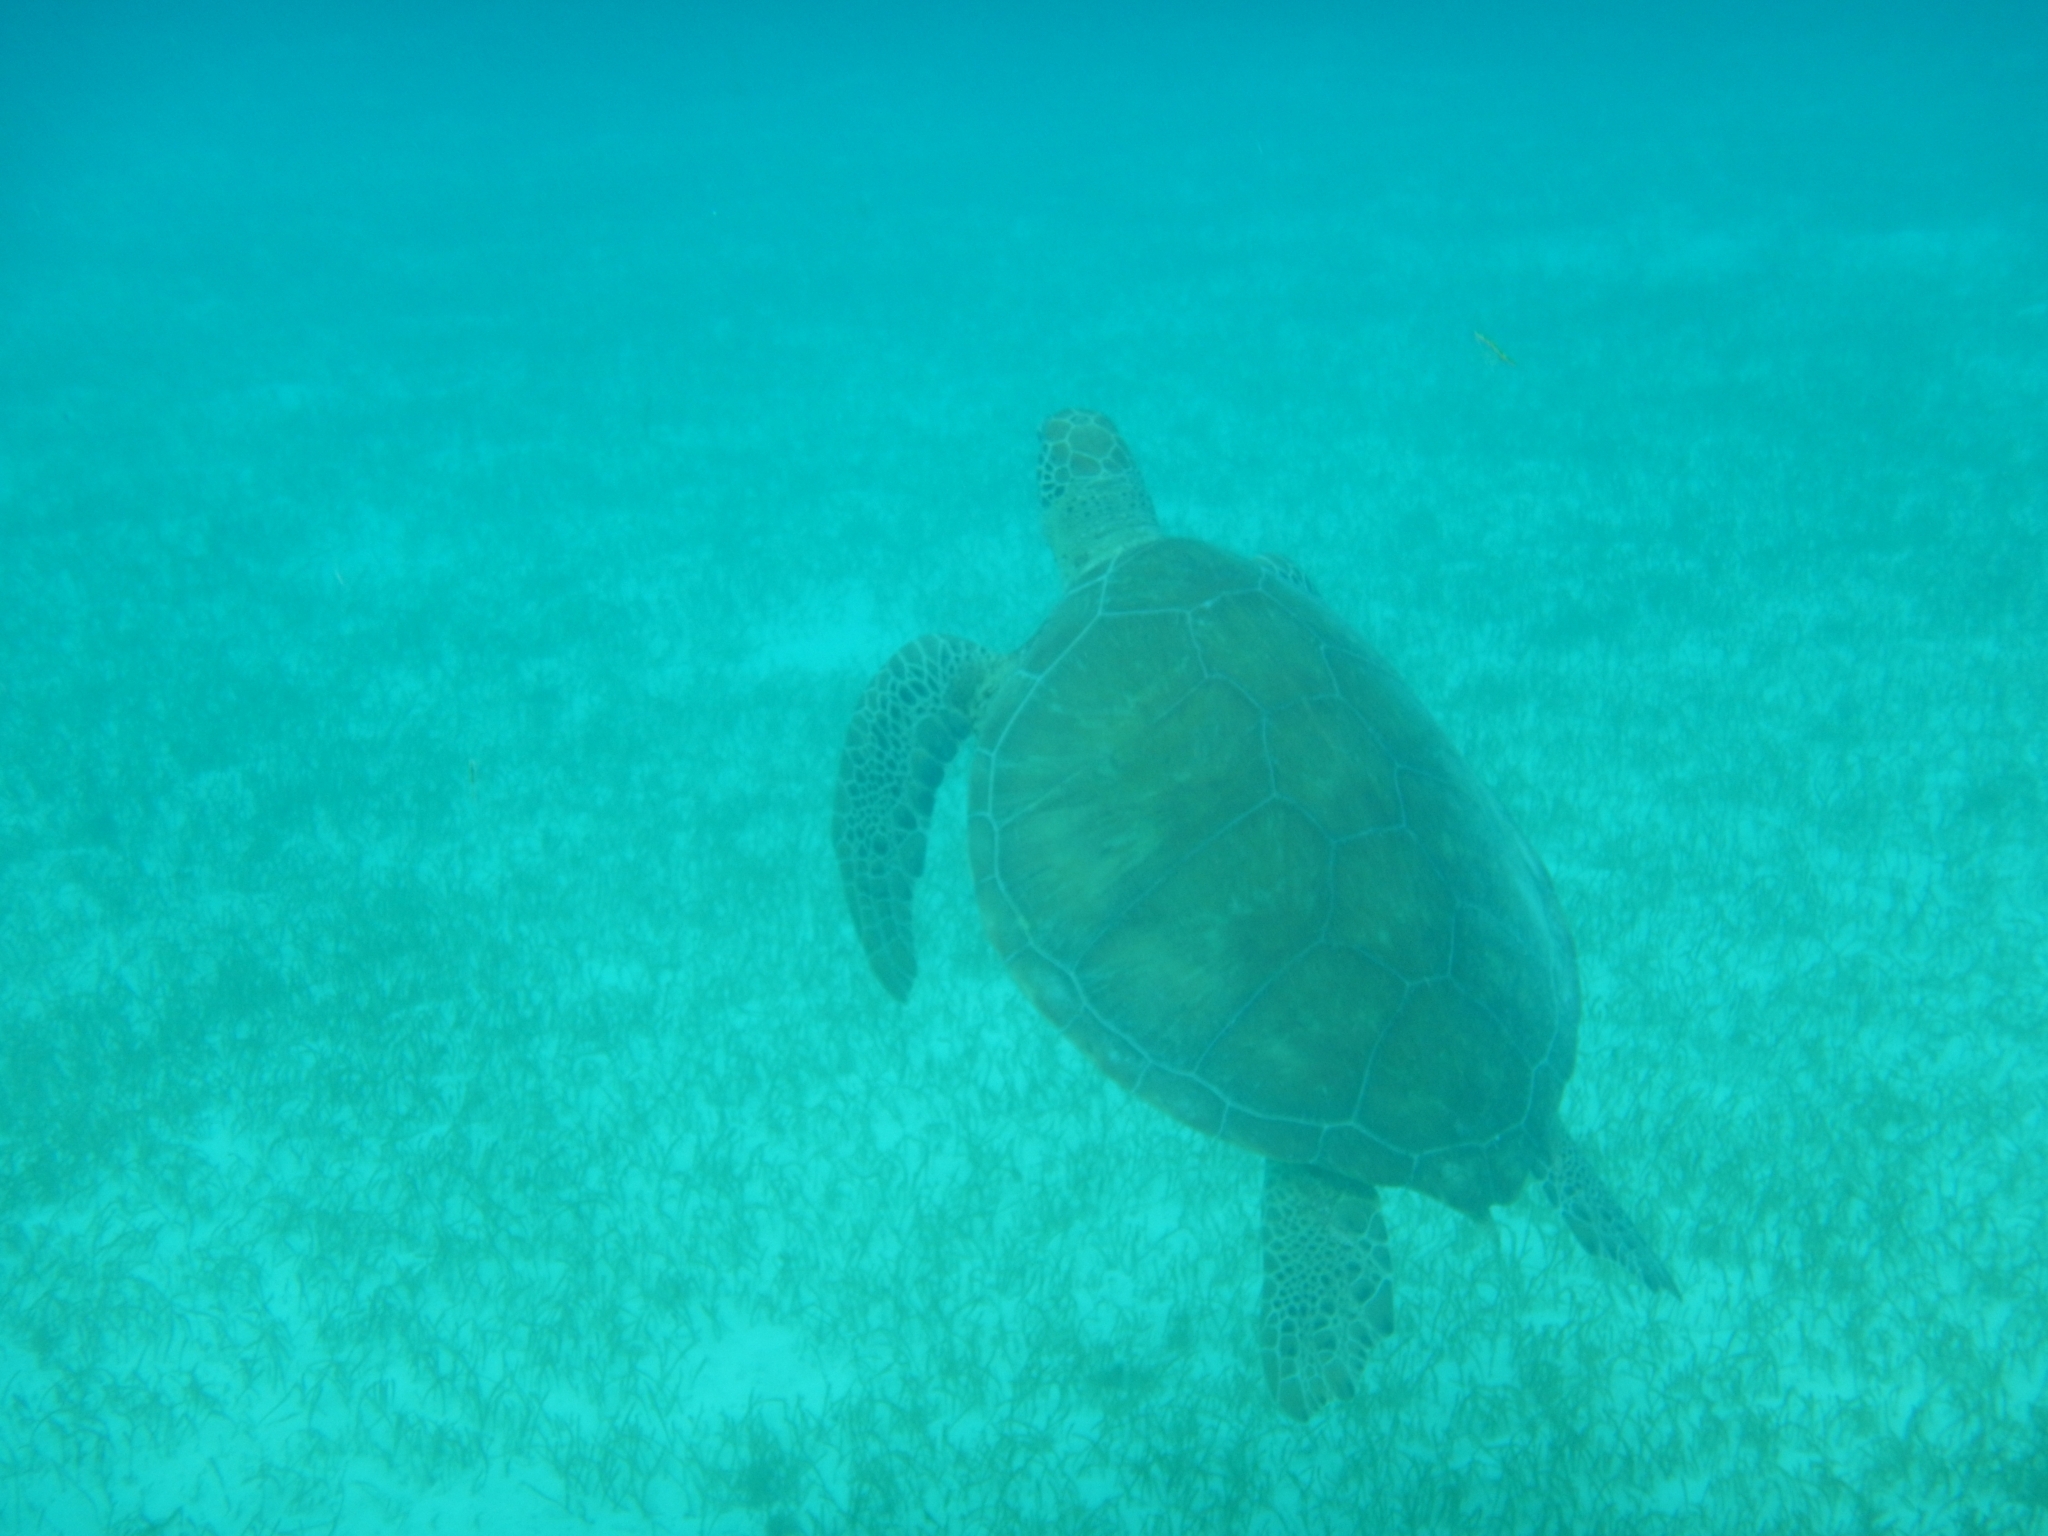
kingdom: Animalia
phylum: Chordata
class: Testudines
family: Cheloniidae
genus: Chelonia
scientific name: Chelonia mydas
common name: Green turtle
